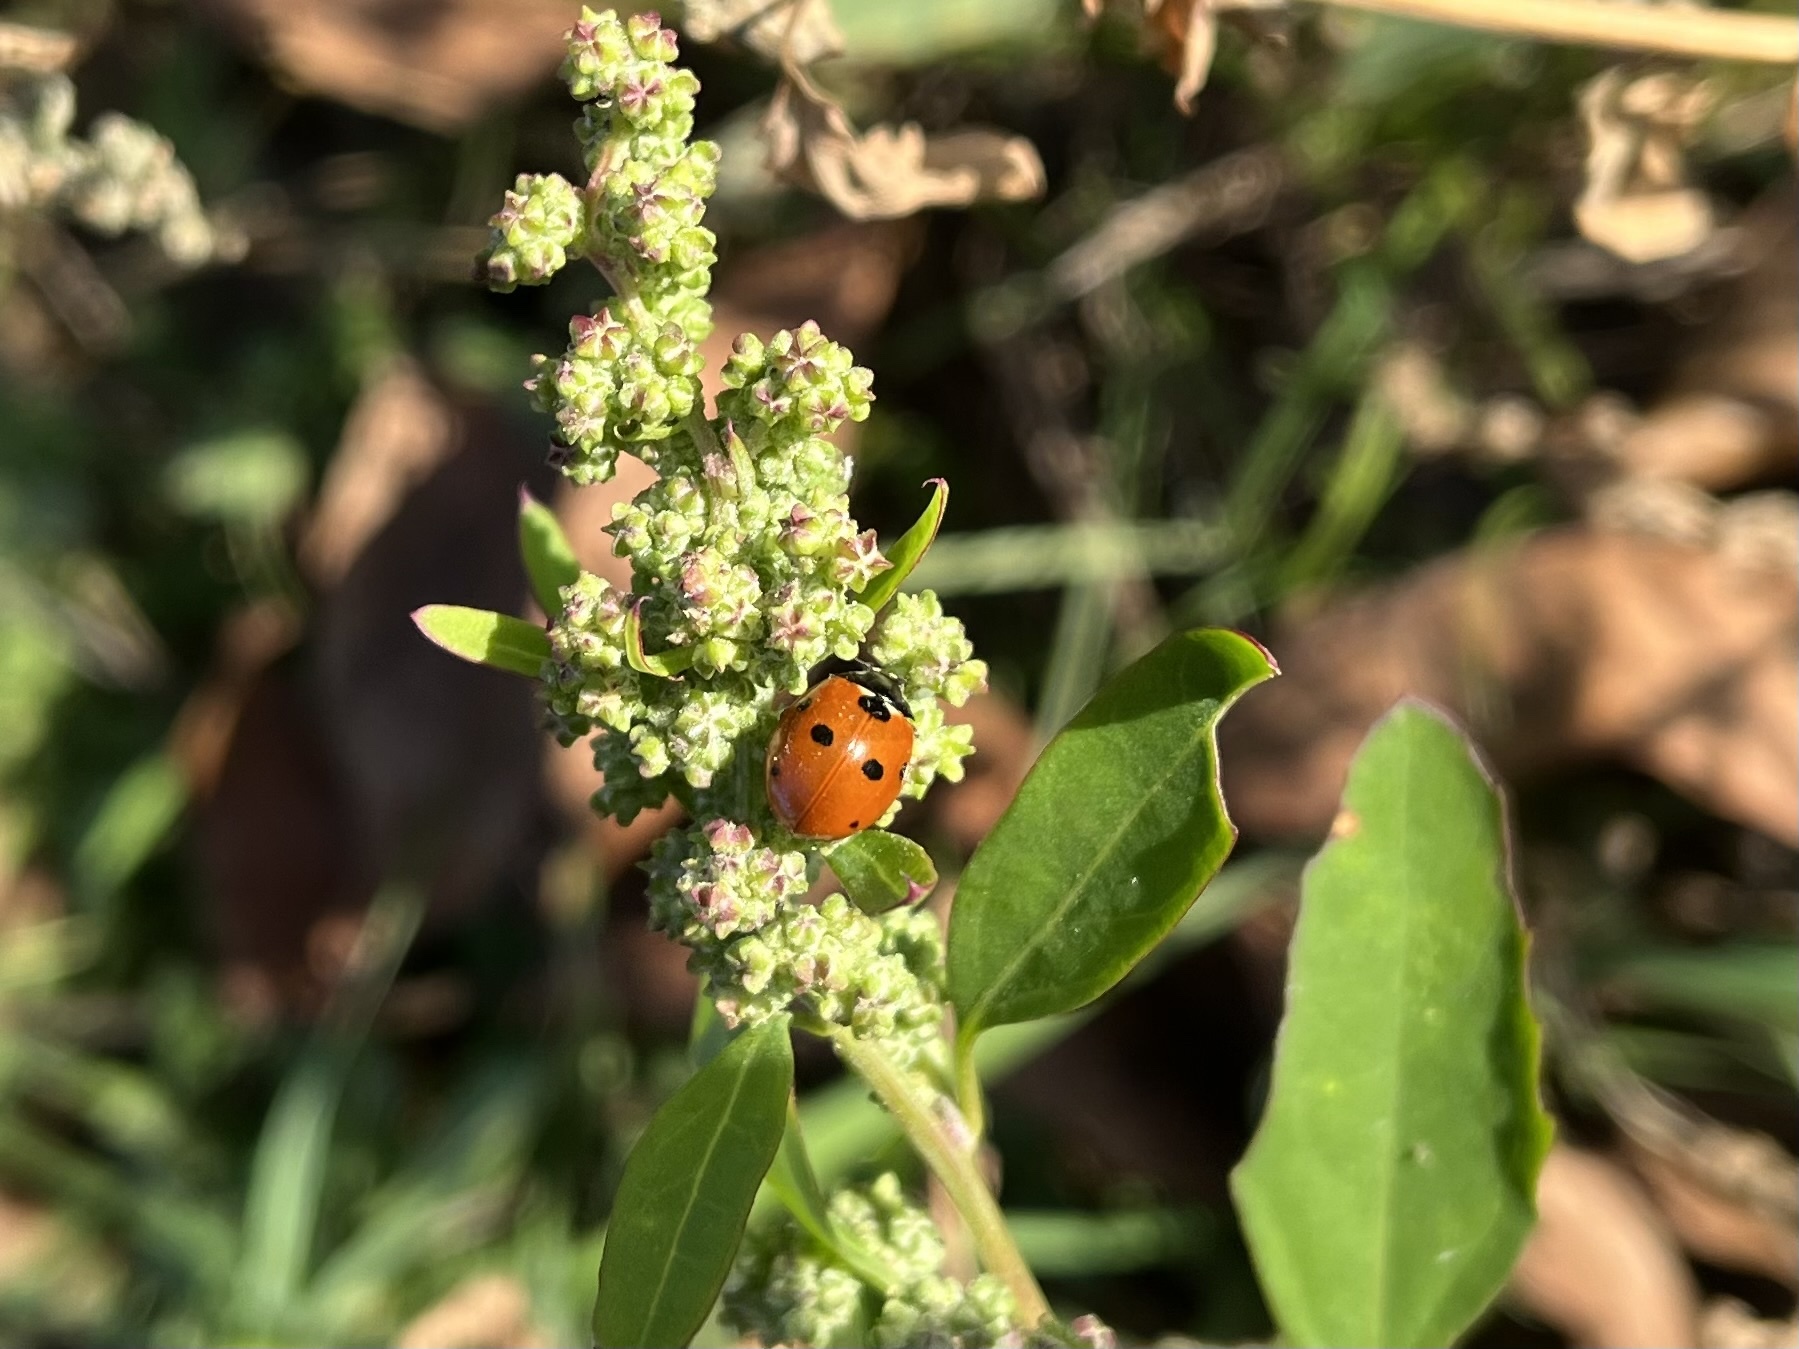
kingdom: Animalia
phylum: Arthropoda
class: Insecta
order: Coleoptera
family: Coccinellidae
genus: Coccinella
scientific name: Coccinella septempunctata
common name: Sevenspotted lady beetle
